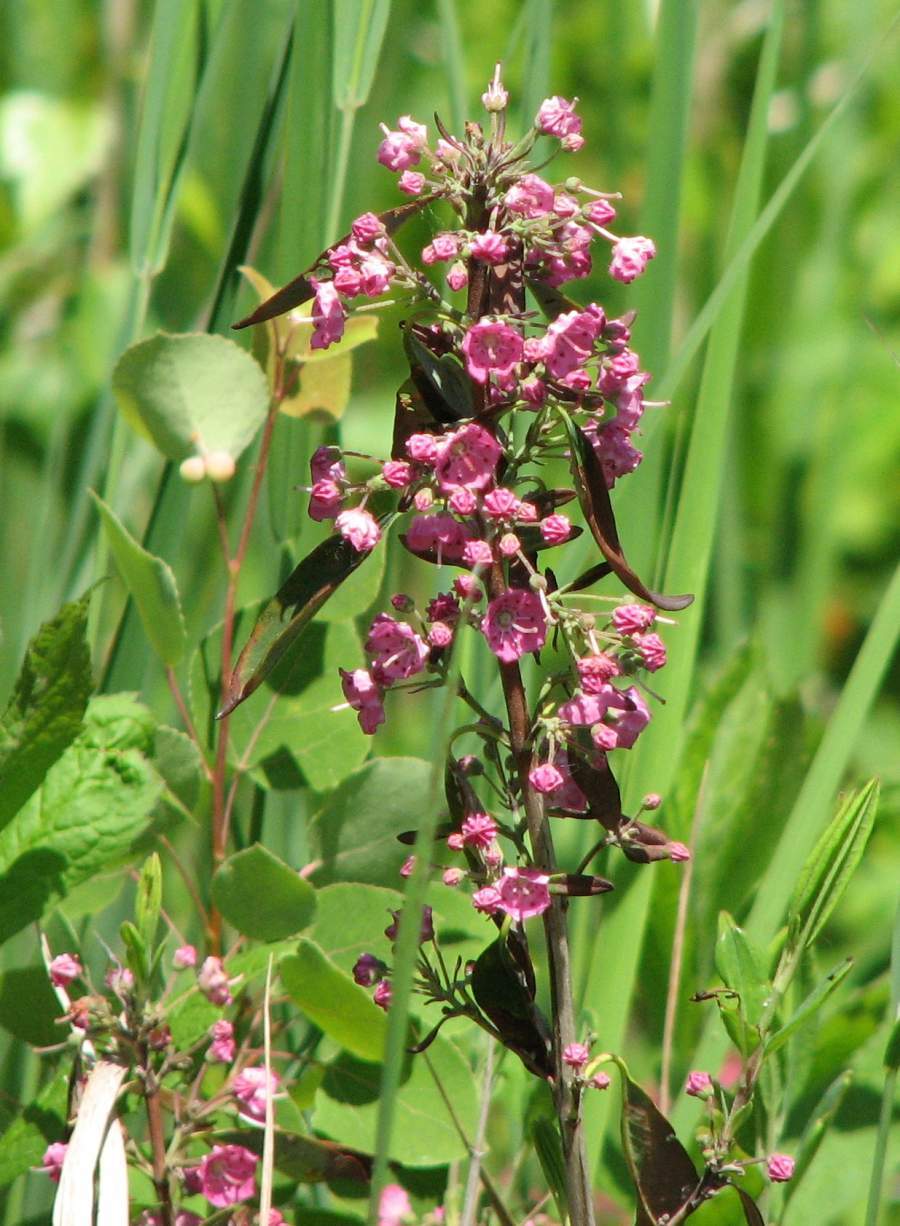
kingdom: Plantae
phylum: Tracheophyta
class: Magnoliopsida
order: Ericales
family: Ericaceae
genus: Kalmia
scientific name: Kalmia angustifolia
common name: Sheep-laurel
